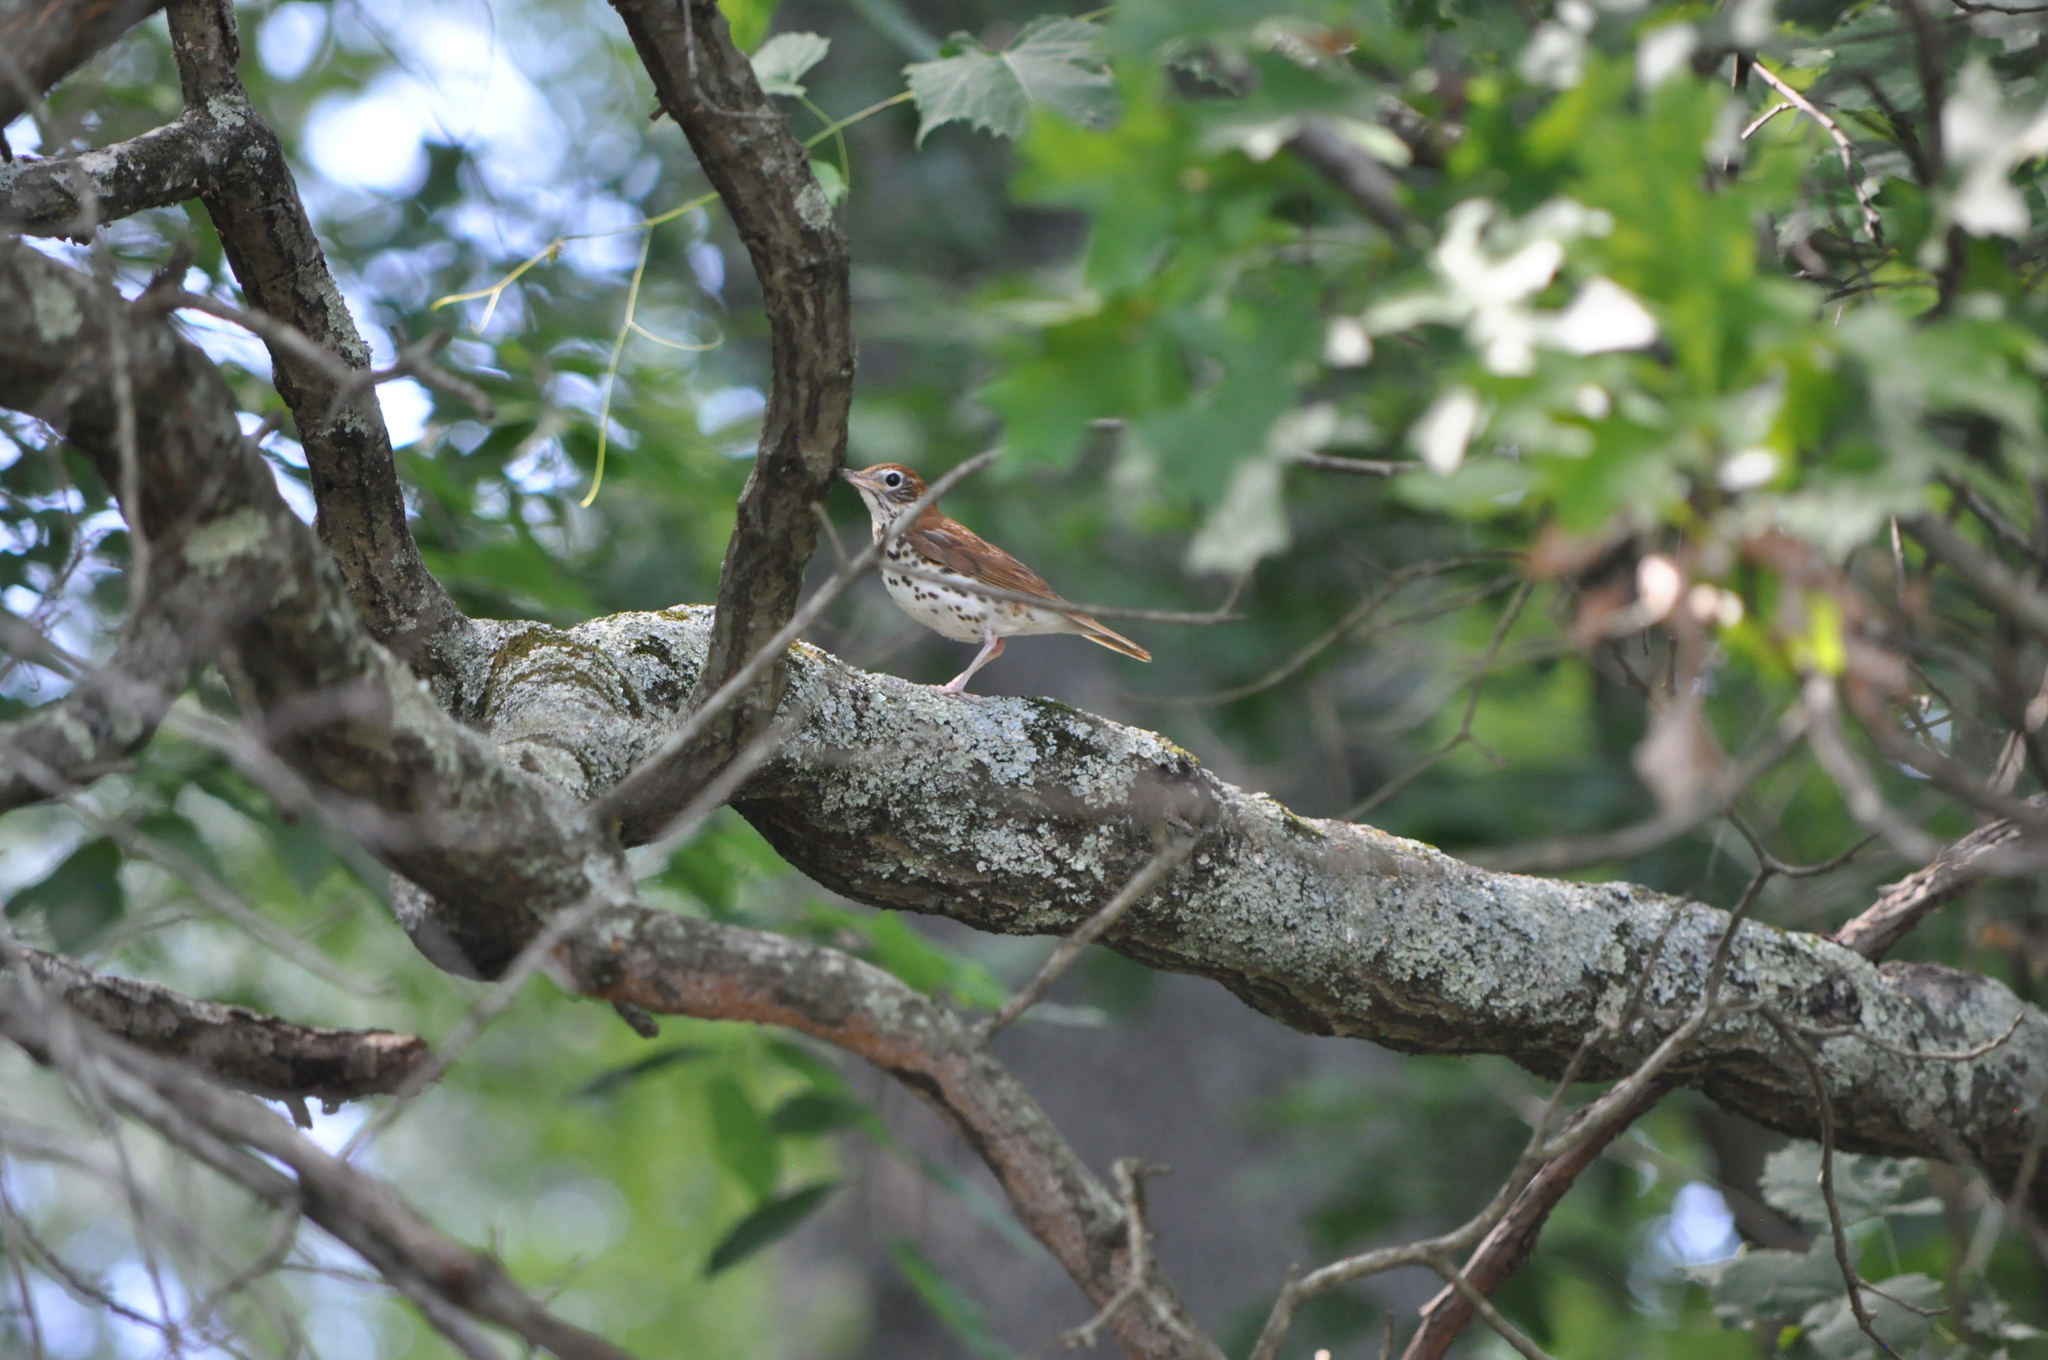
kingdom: Animalia
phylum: Chordata
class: Aves
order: Passeriformes
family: Turdidae
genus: Hylocichla
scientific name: Hylocichla mustelina
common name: Wood thrush
